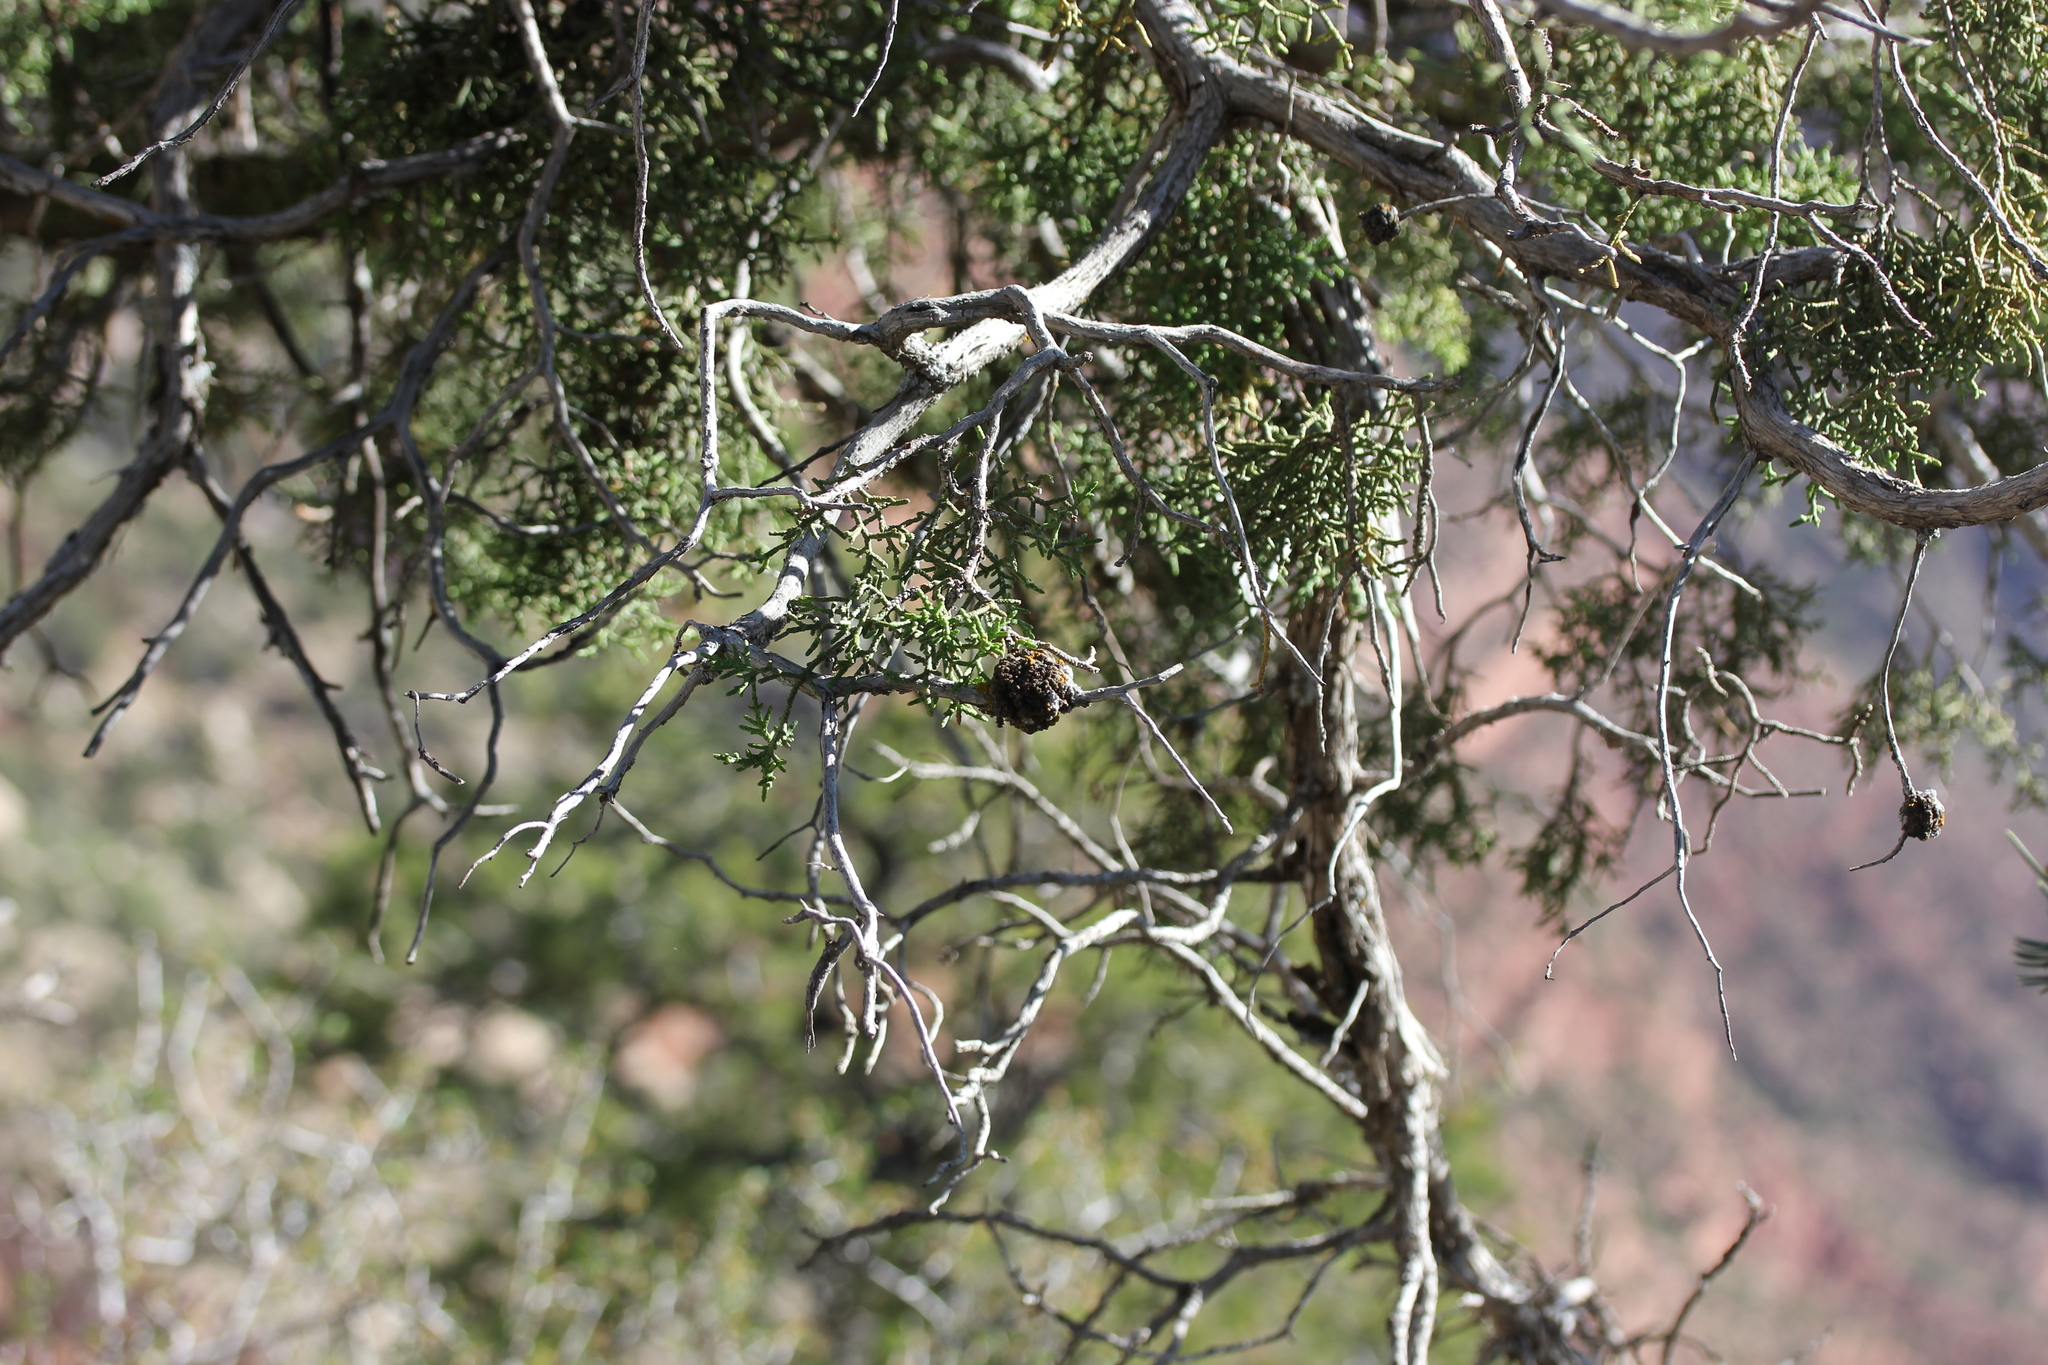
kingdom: Plantae
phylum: Tracheophyta
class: Pinopsida
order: Pinales
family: Cupressaceae
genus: Juniperus
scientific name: Juniperus osteosperma
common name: Utah juniper
